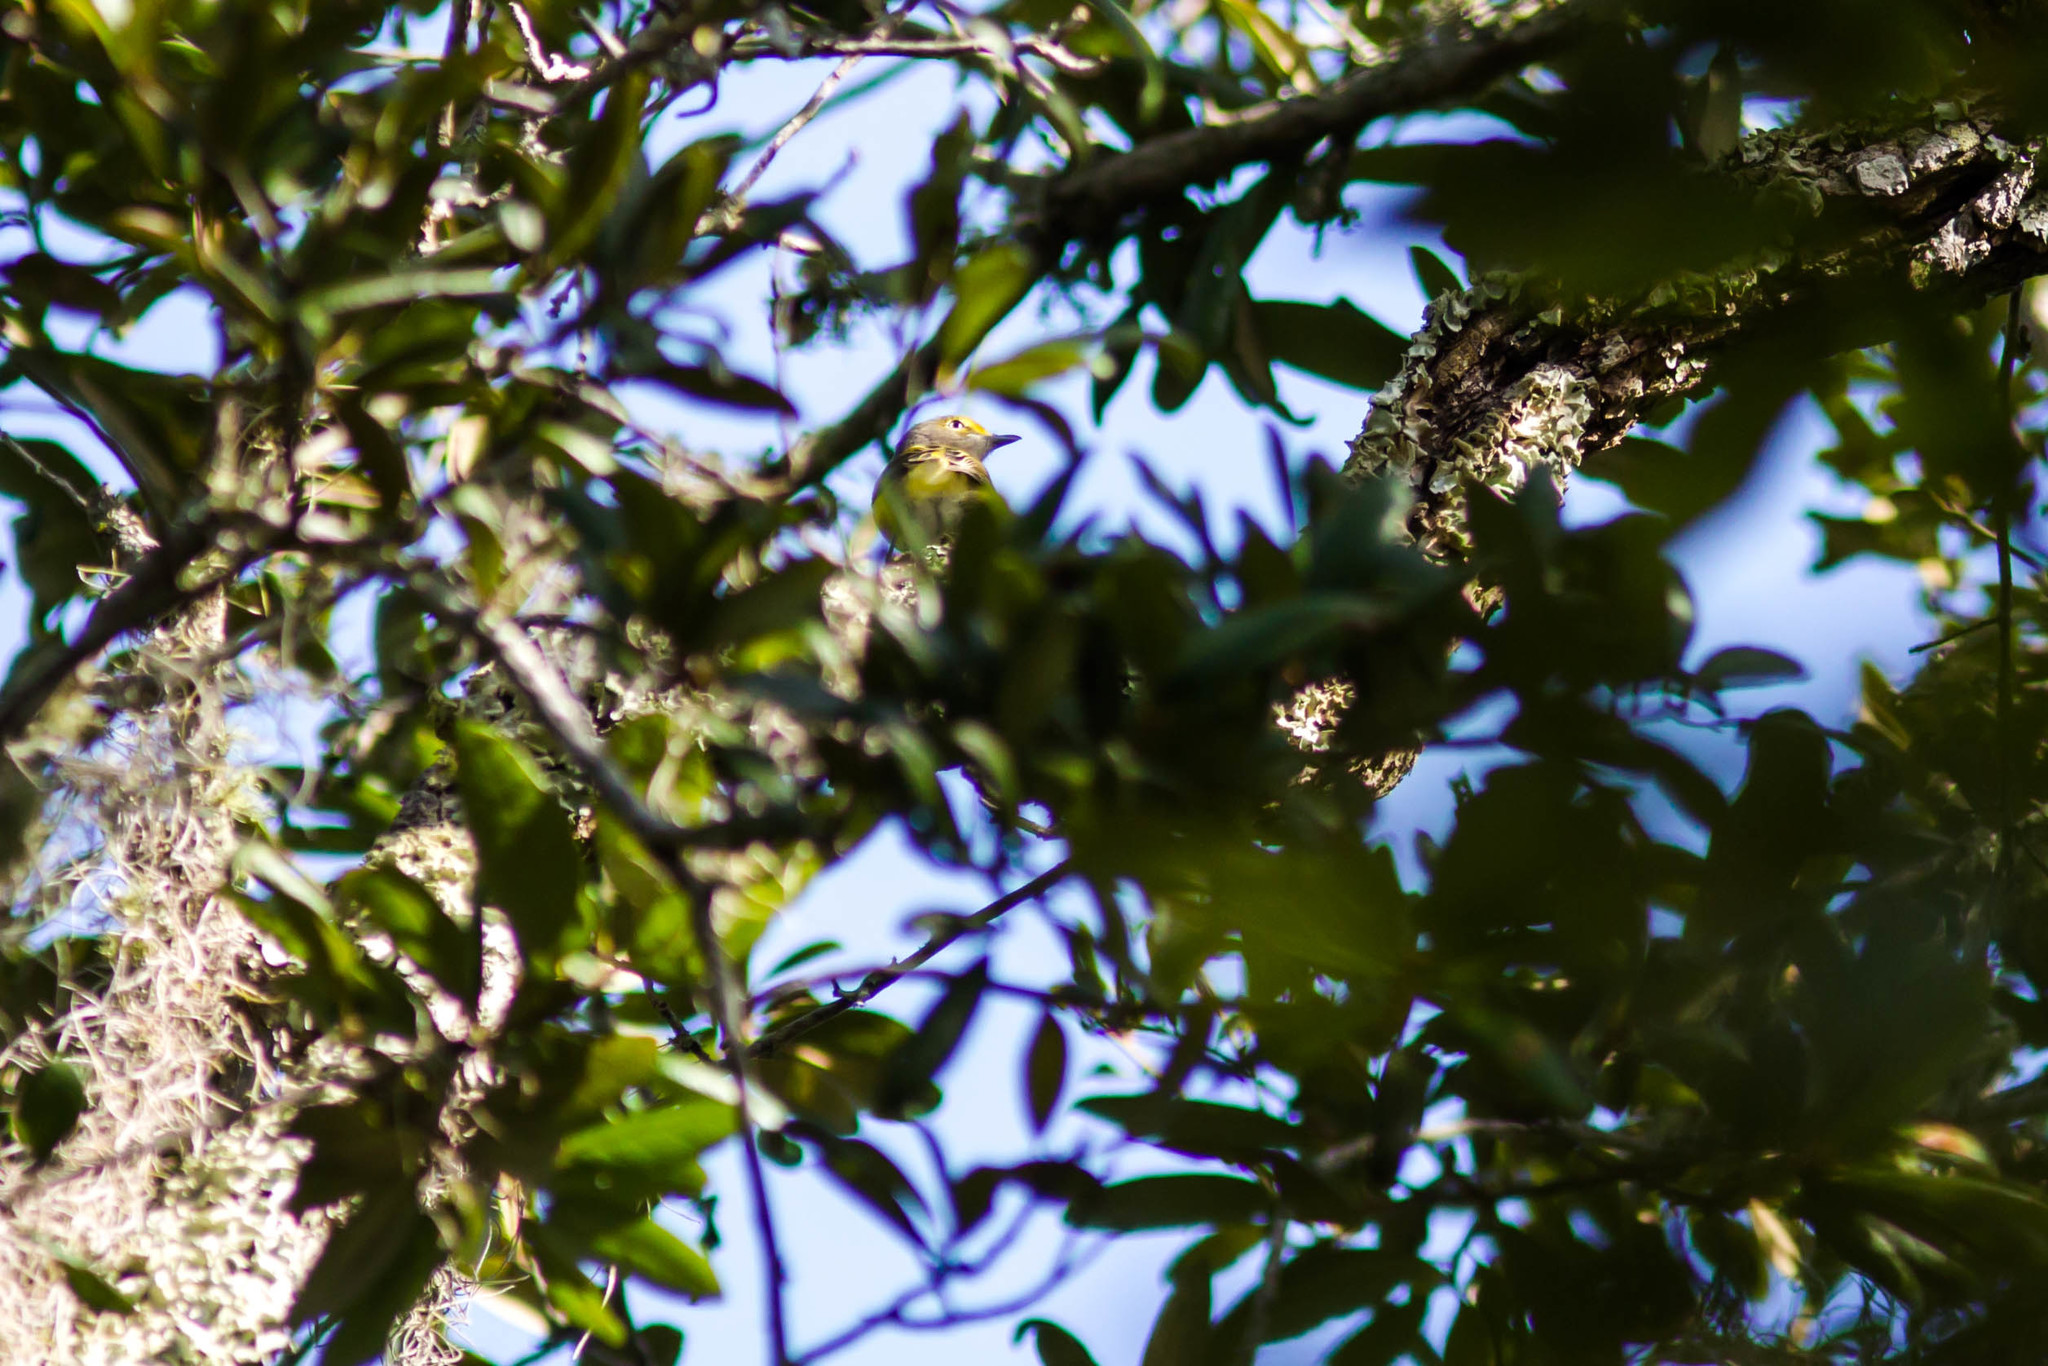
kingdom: Animalia
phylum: Chordata
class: Aves
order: Passeriformes
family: Vireonidae
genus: Vireo
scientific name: Vireo griseus
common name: White-eyed vireo
